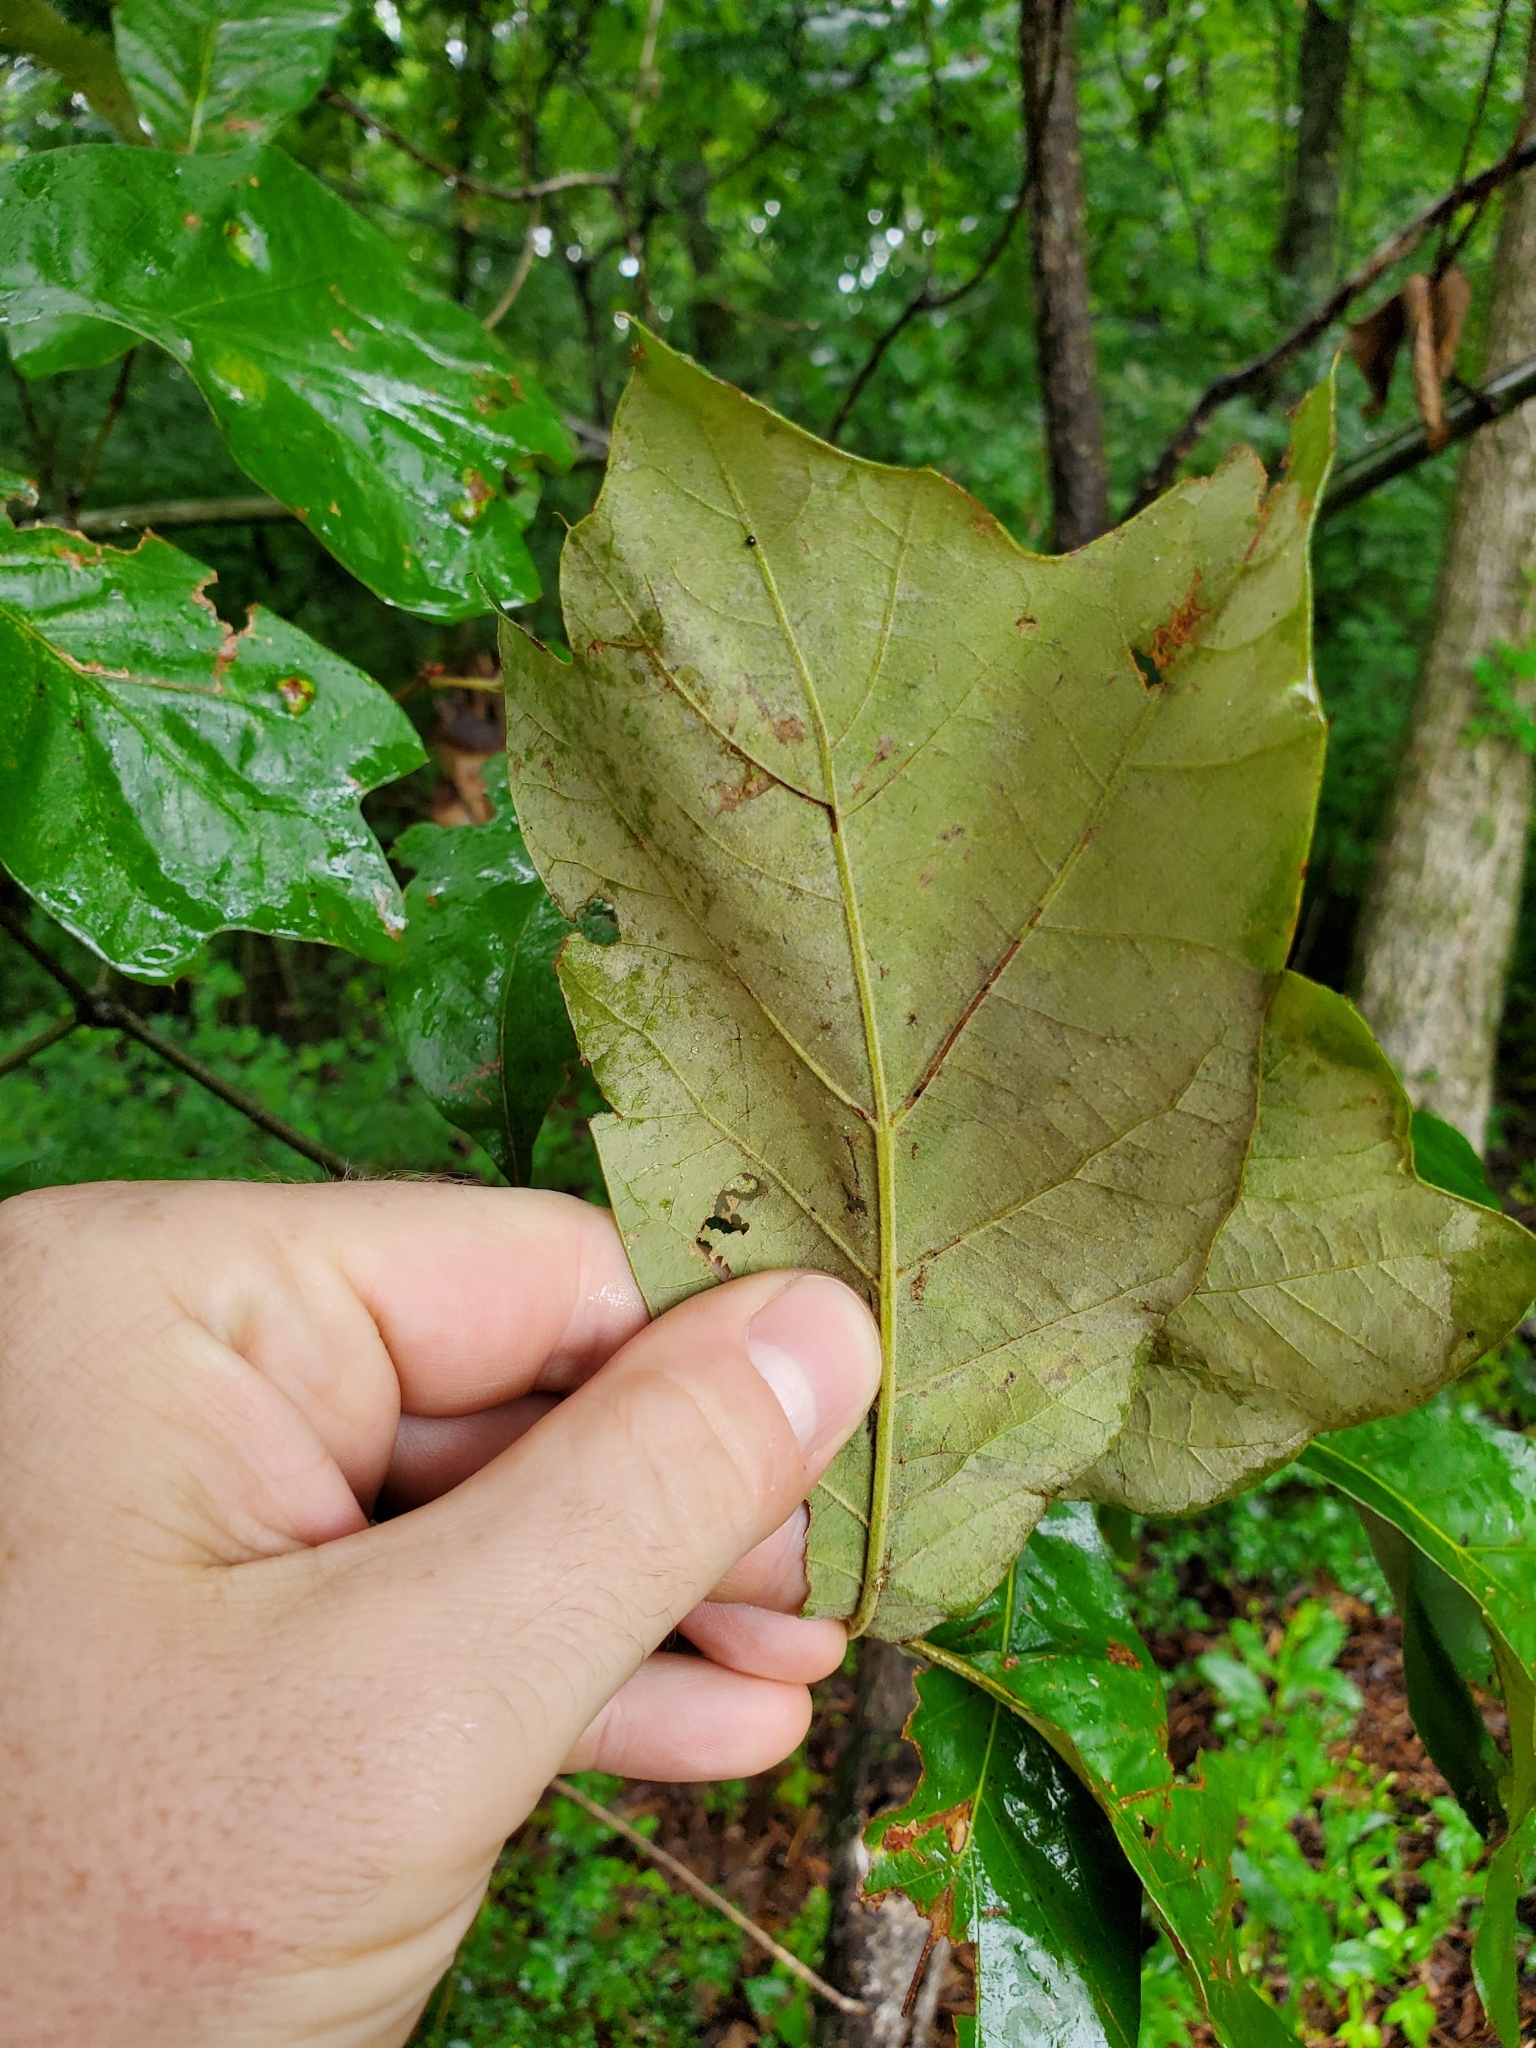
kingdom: Plantae
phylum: Tracheophyta
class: Magnoliopsida
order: Fagales
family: Fagaceae
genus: Quercus
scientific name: Quercus falcata
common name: Southern red oak
